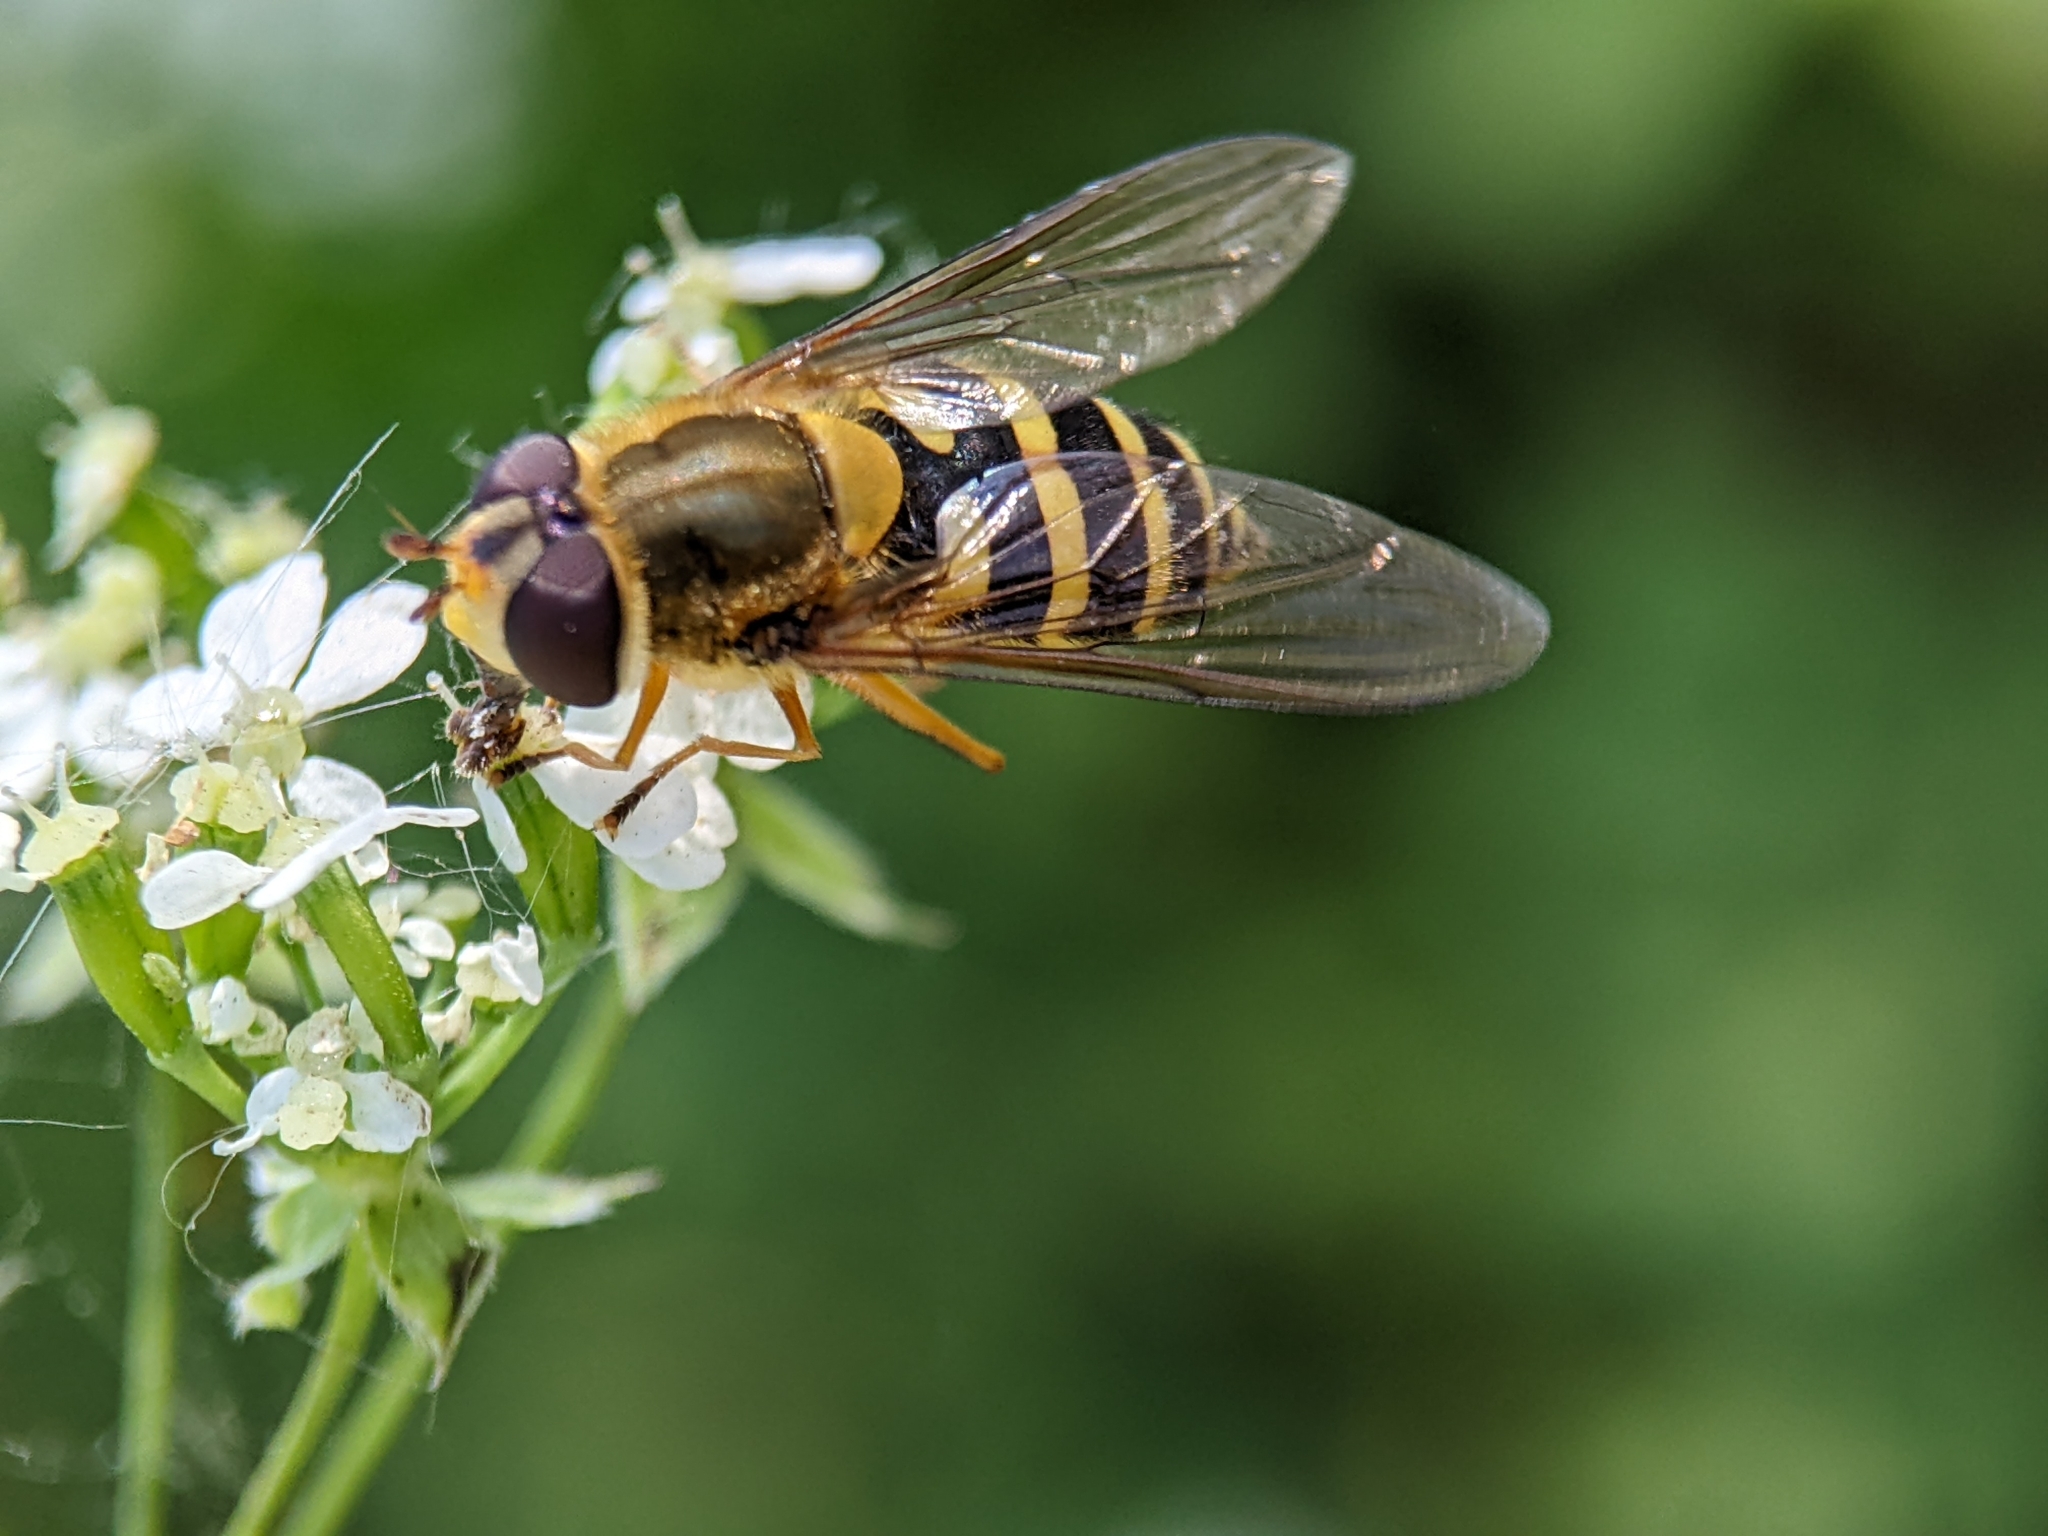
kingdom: Animalia
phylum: Arthropoda
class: Insecta
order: Diptera
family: Syrphidae
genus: Syrphus
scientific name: Syrphus ribesii
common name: Common flower fly
